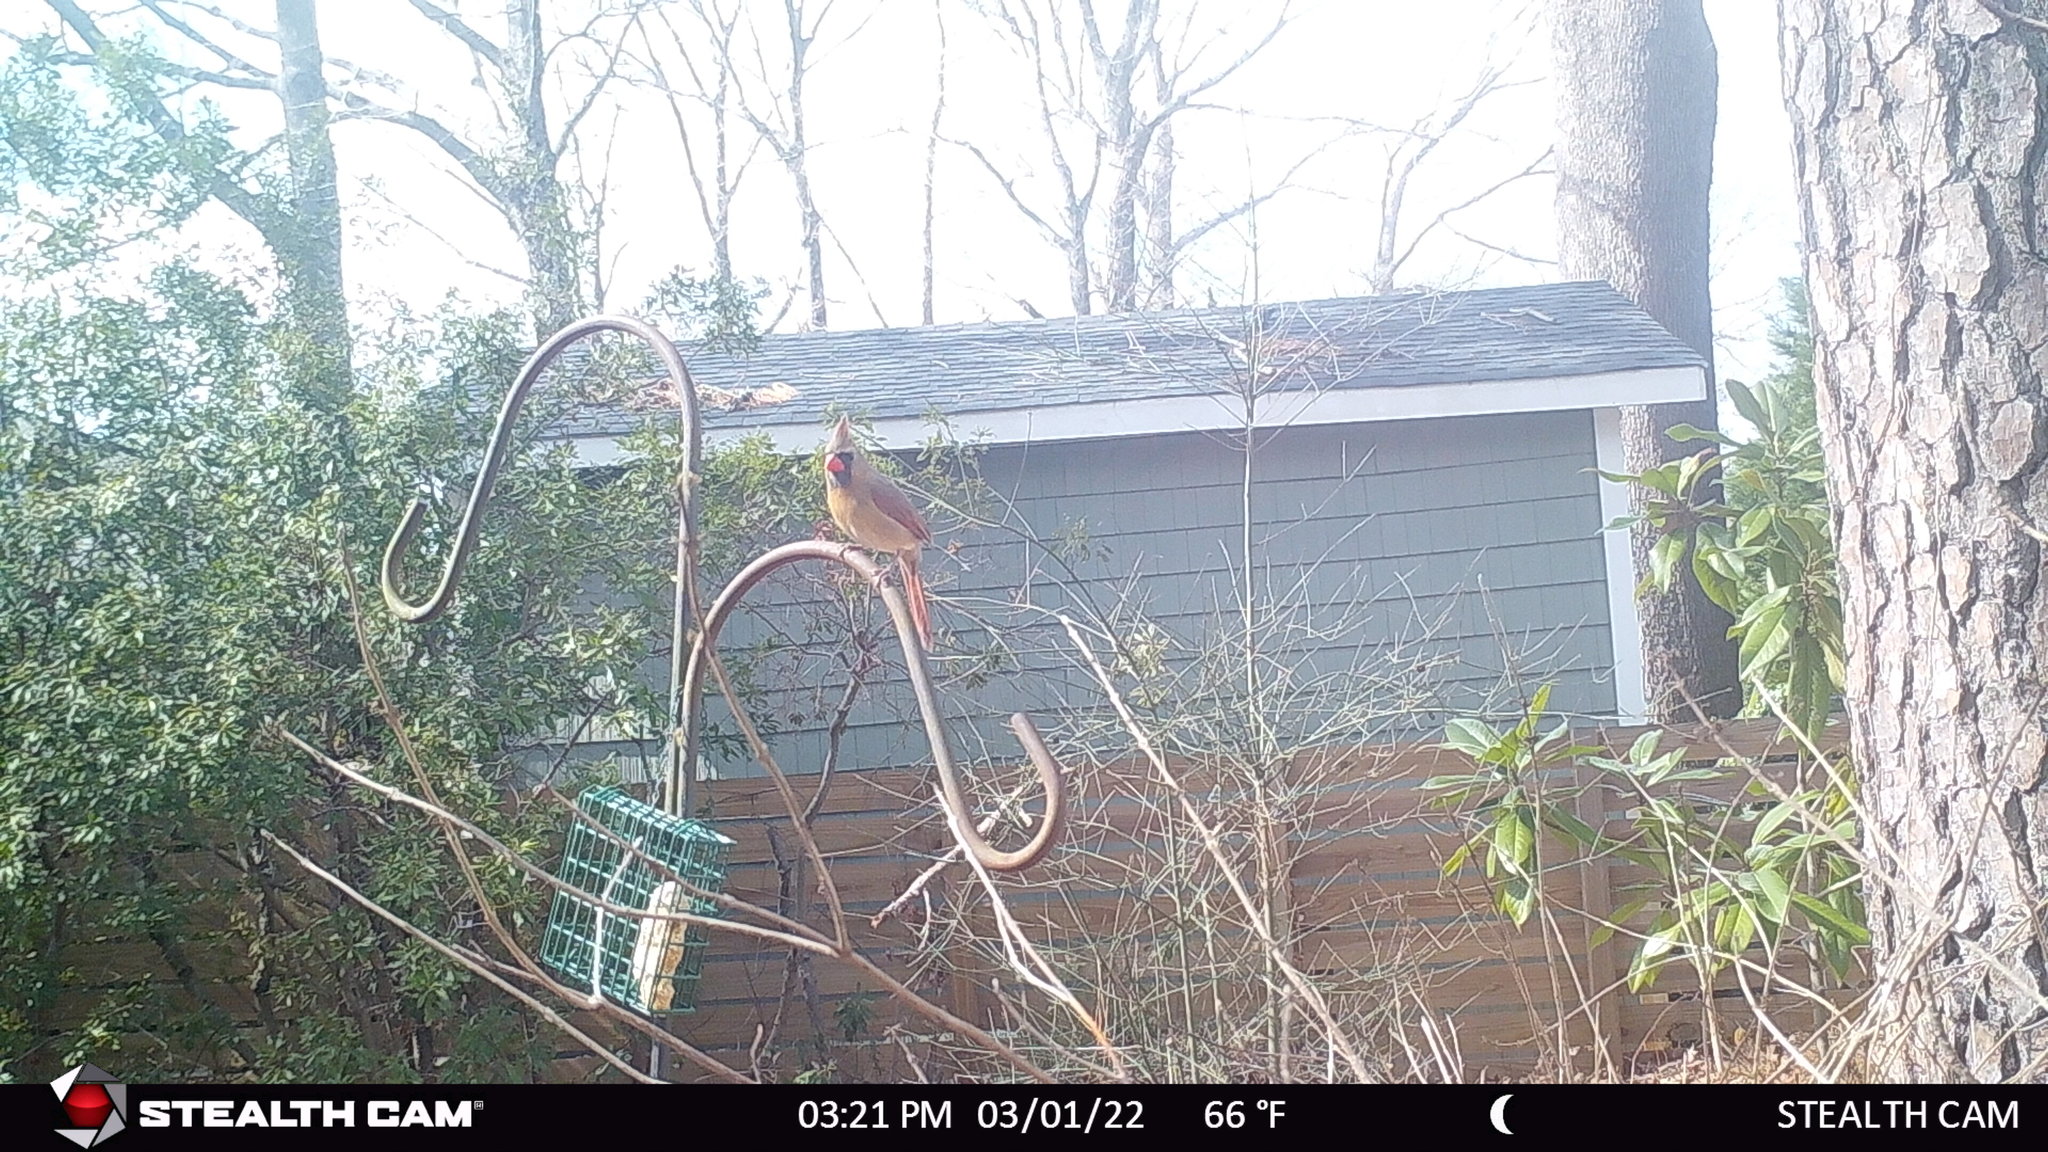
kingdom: Animalia
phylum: Chordata
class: Aves
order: Passeriformes
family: Cardinalidae
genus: Cardinalis
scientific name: Cardinalis cardinalis
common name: Northern cardinal
